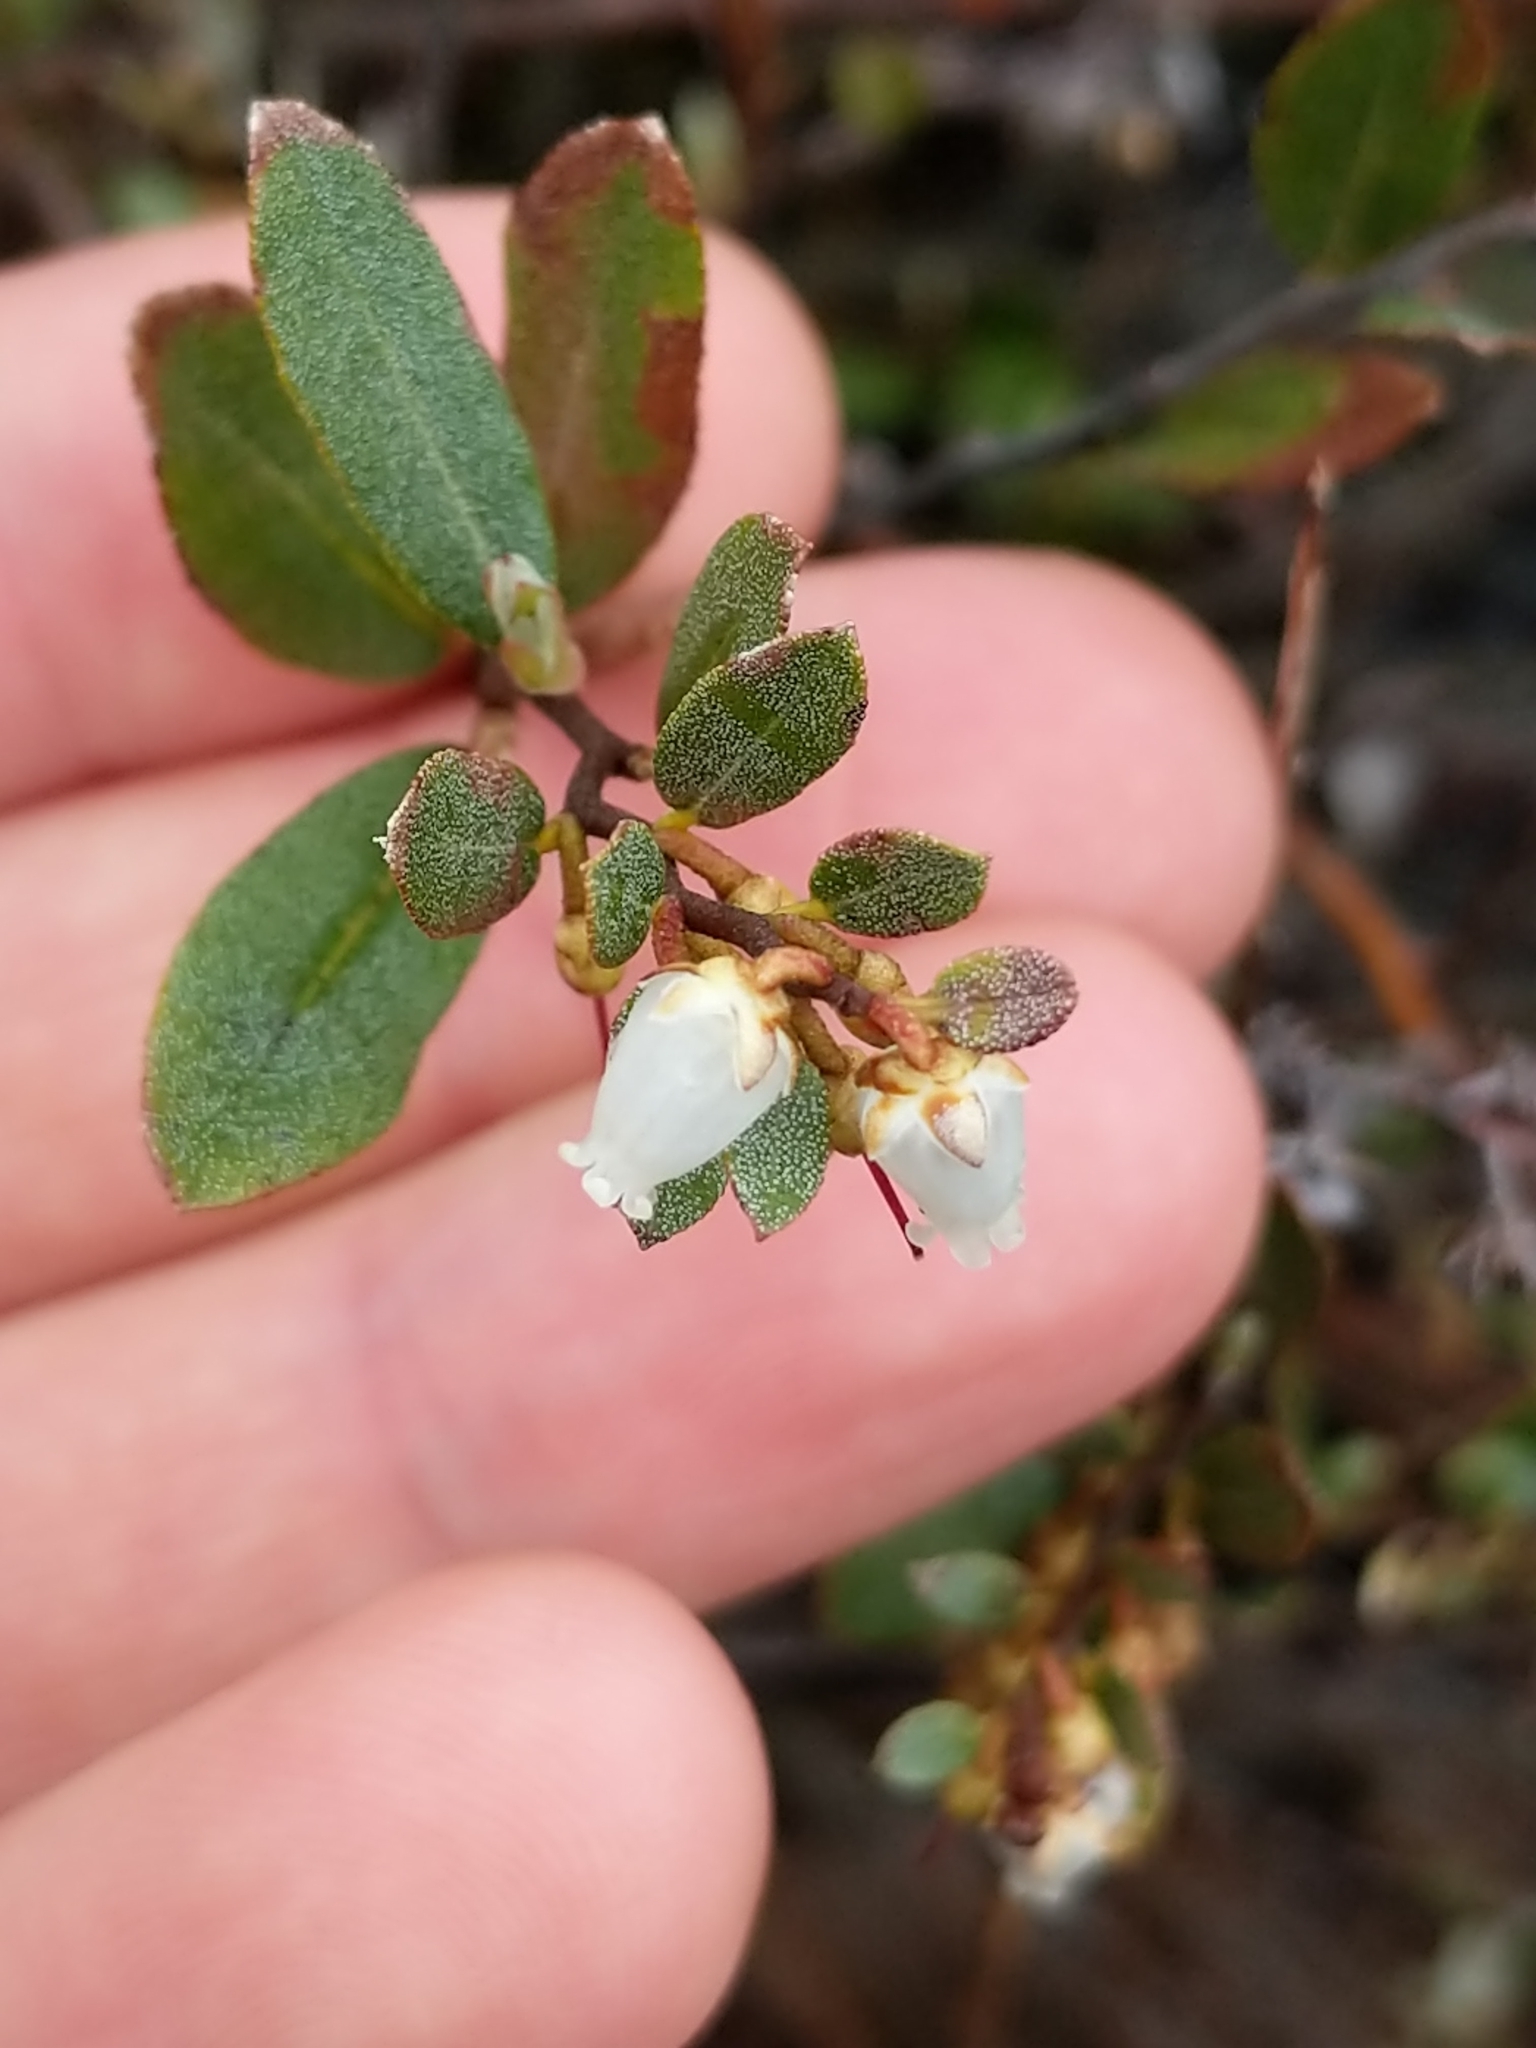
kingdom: Plantae
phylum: Tracheophyta
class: Magnoliopsida
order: Ericales
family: Ericaceae
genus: Chamaedaphne
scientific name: Chamaedaphne calyculata
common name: Leatherleaf
